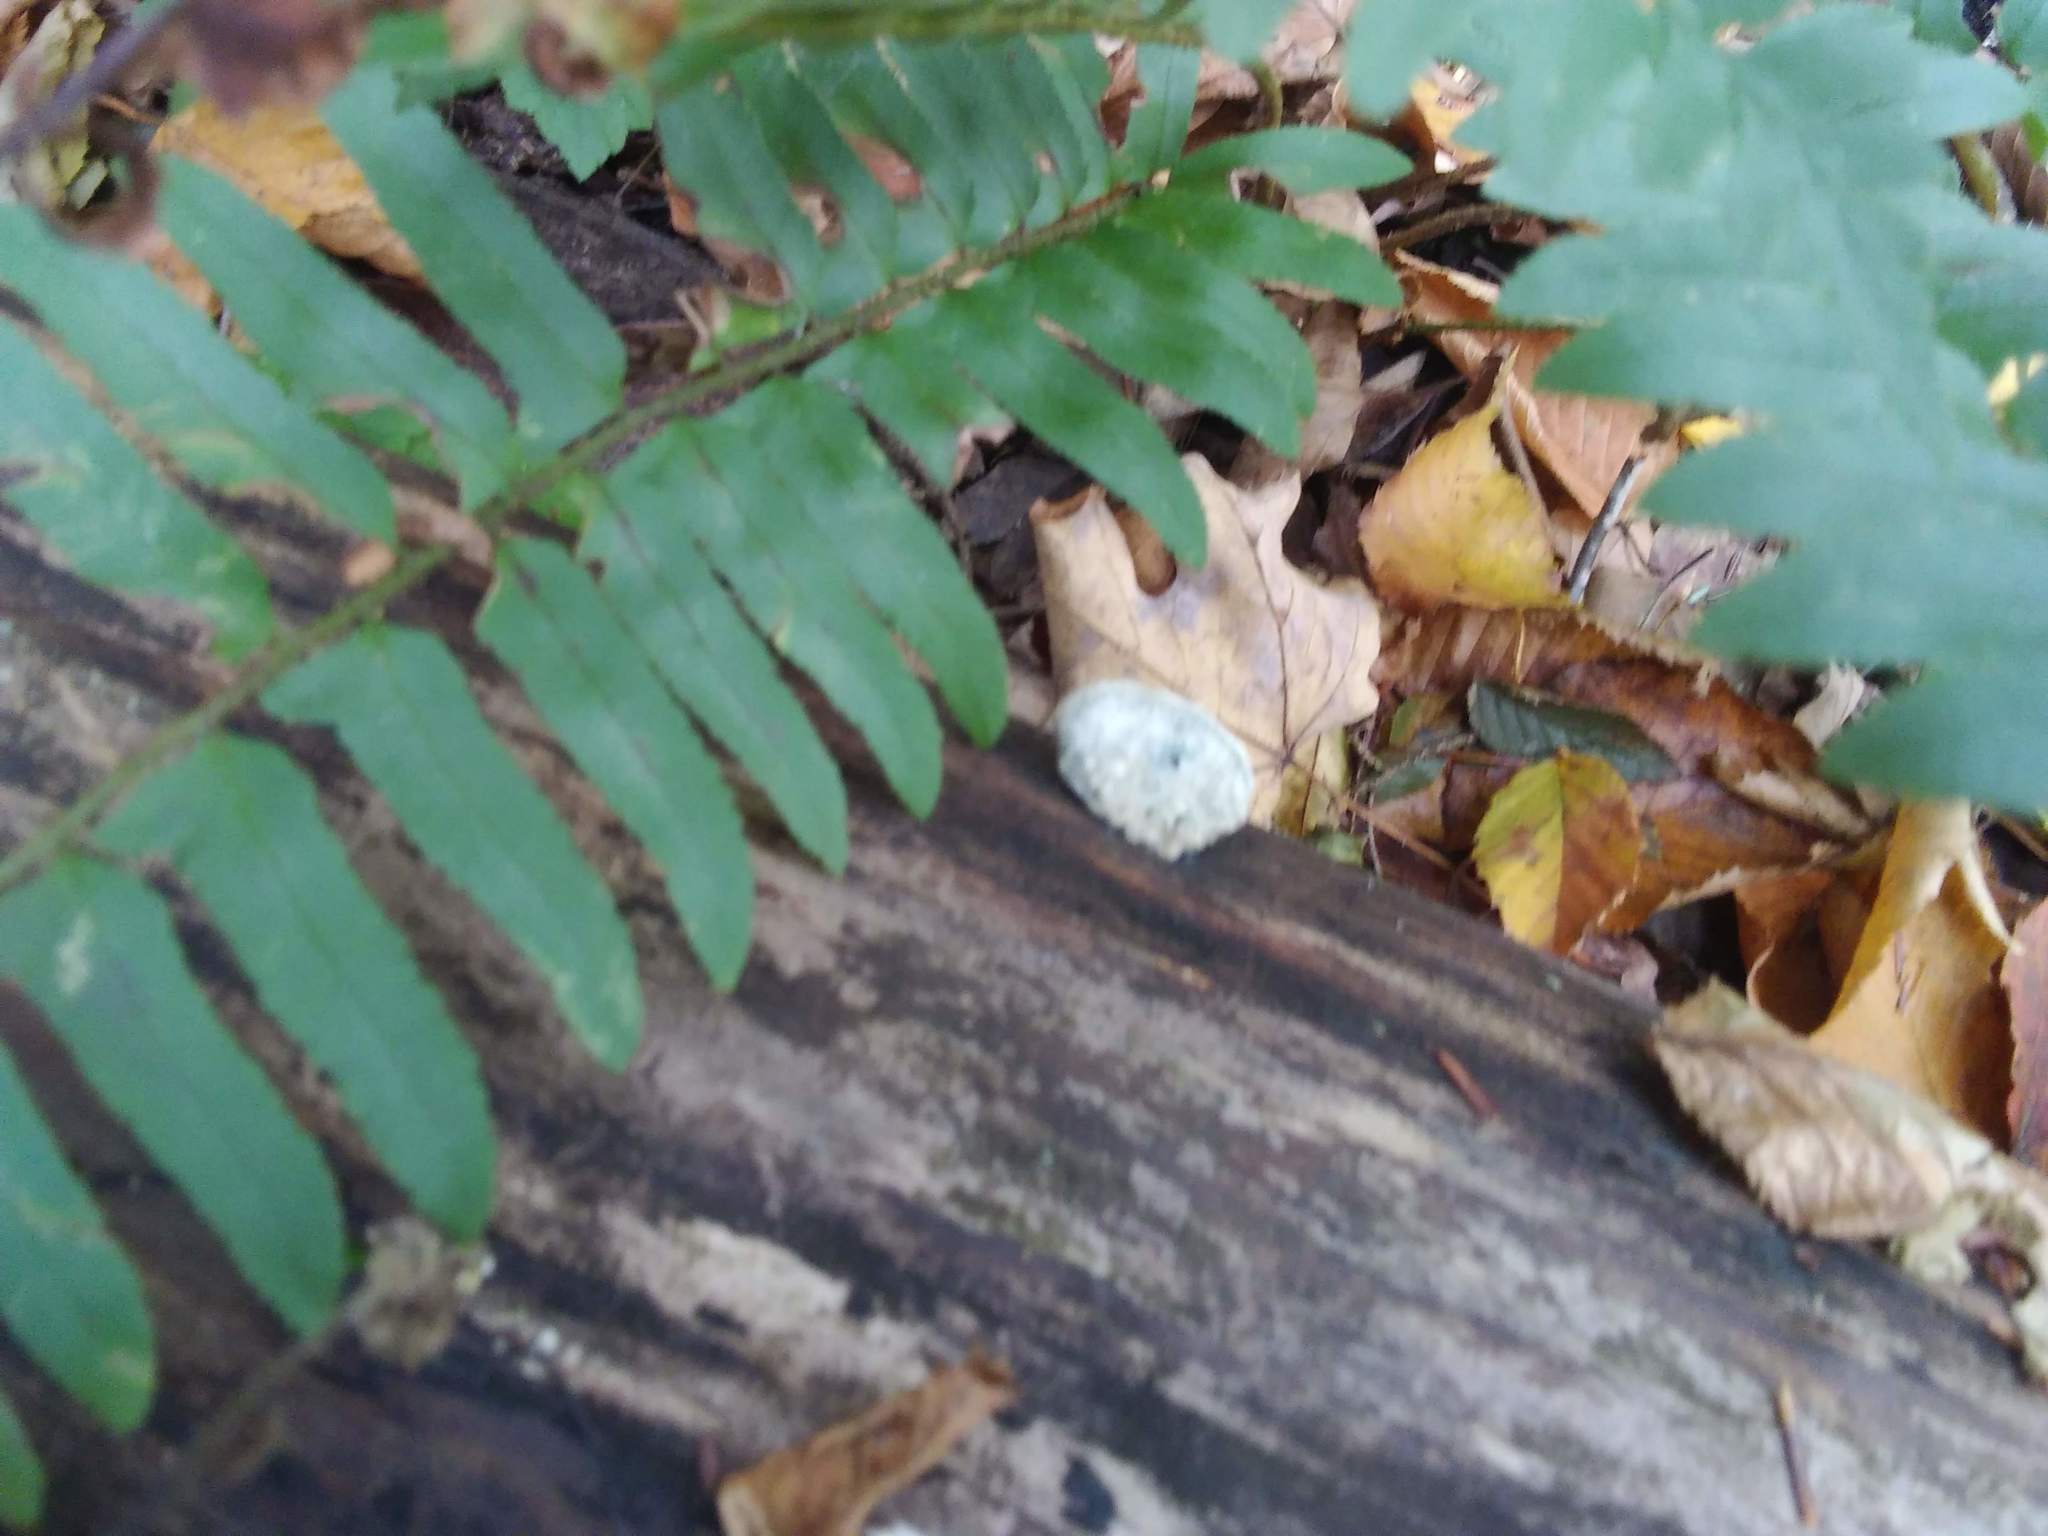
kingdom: Plantae
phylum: Tracheophyta
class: Polypodiopsida
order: Polypodiales
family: Dryopteridaceae
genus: Polystichum
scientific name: Polystichum acrostichoides
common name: Christmas fern
